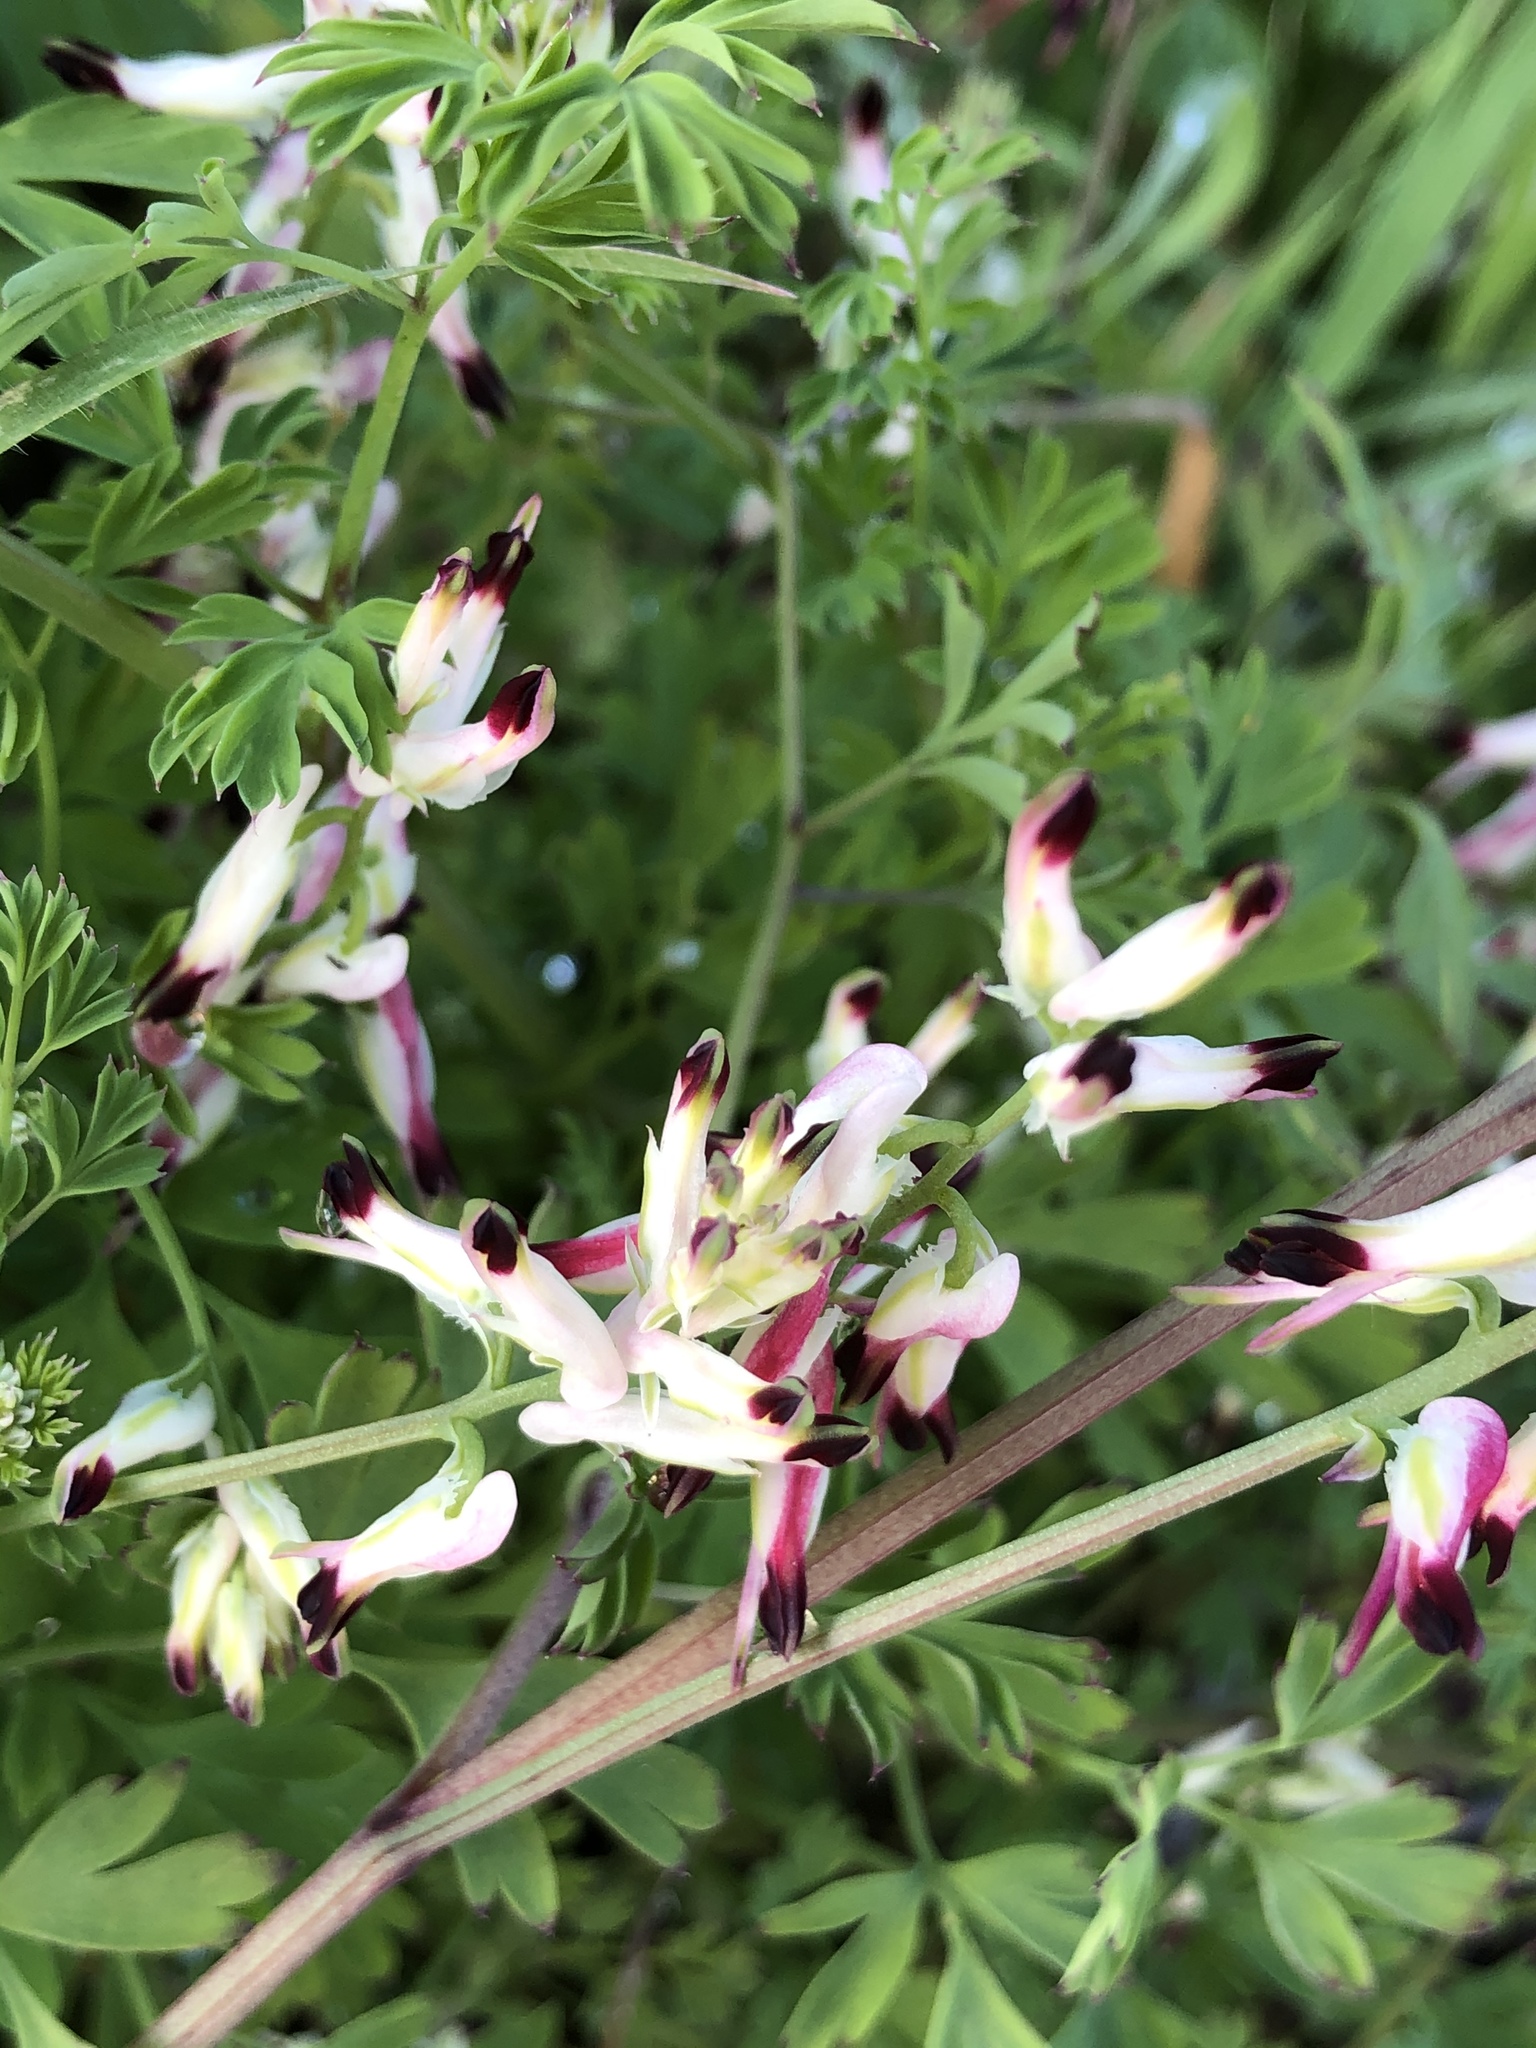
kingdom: Plantae
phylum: Tracheophyta
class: Magnoliopsida
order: Ranunculales
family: Papaveraceae
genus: Fumaria
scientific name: Fumaria capreolata
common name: White ramping-fumitory
